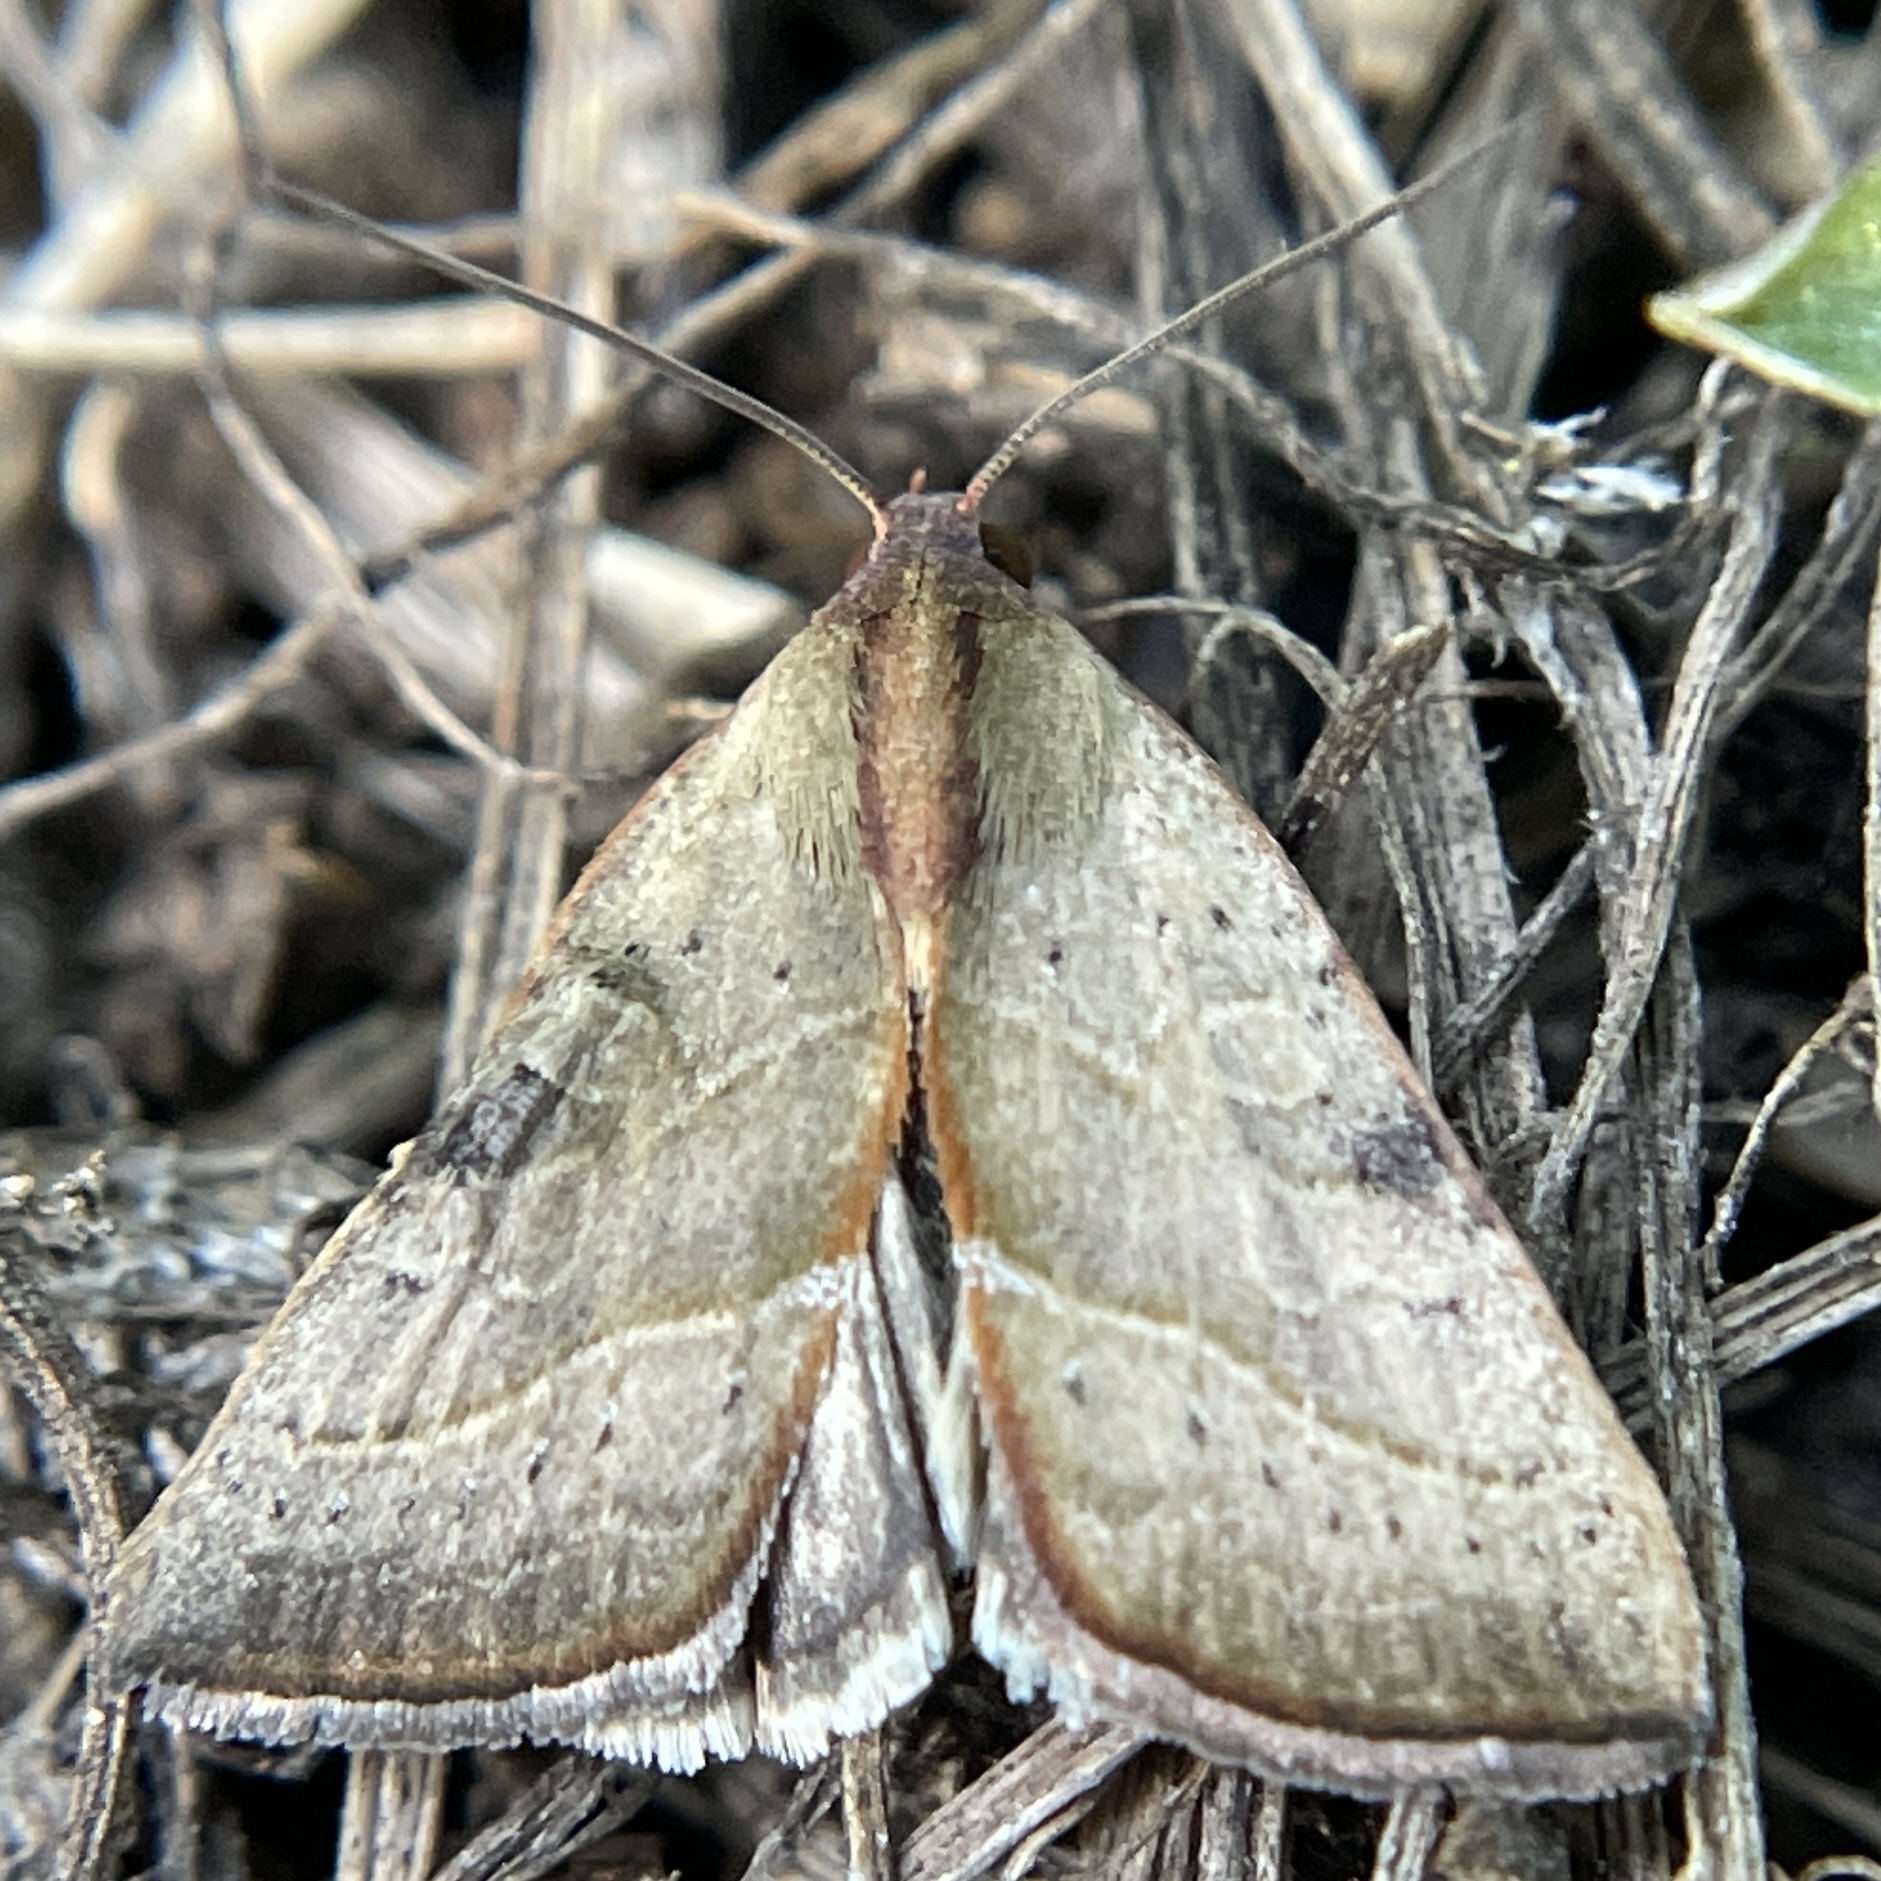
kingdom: Animalia
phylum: Arthropoda
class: Insecta
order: Lepidoptera
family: Noctuidae
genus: Galgula
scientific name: Galgula partita
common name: Wedgeling
